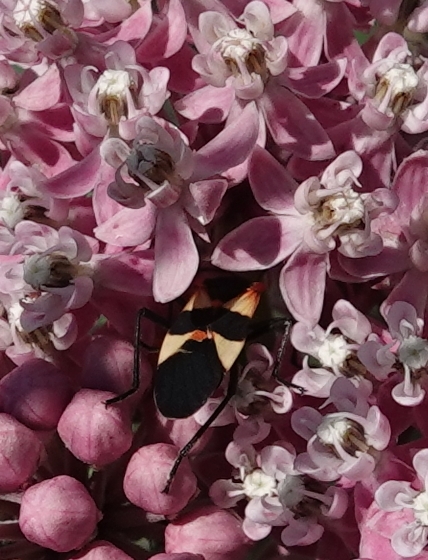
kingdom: Animalia
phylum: Arthropoda
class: Insecta
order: Hemiptera
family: Lygaeidae
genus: Oncopeltus
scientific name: Oncopeltus fasciatus
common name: Large milkweed bug
